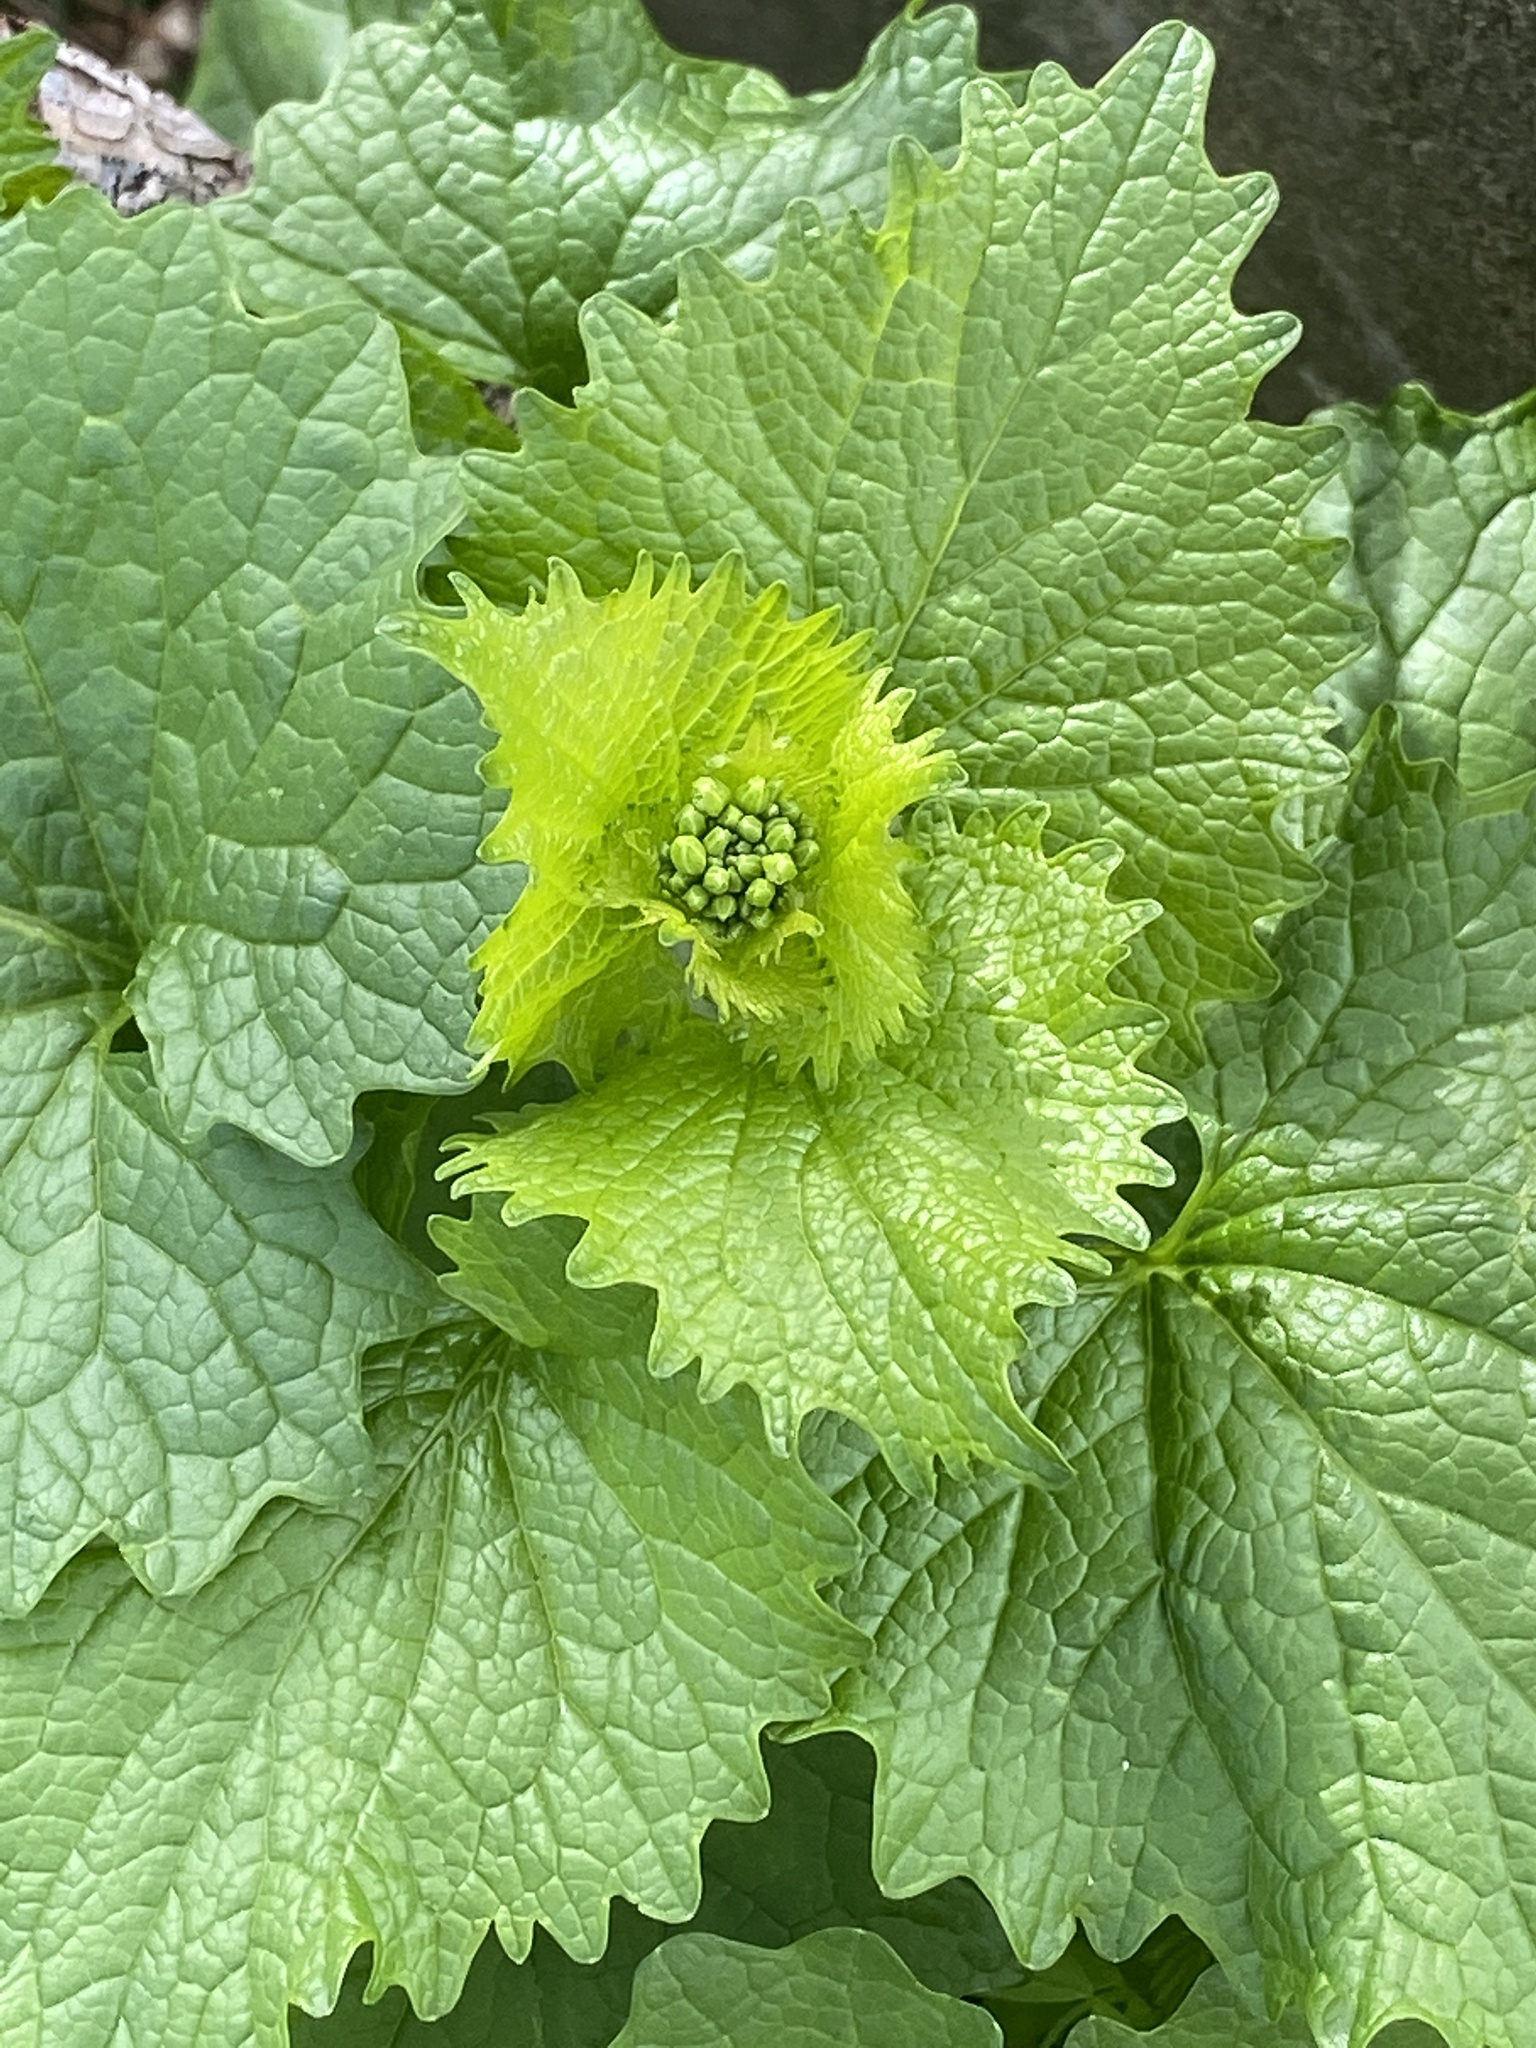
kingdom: Plantae
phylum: Tracheophyta
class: Magnoliopsida
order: Brassicales
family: Brassicaceae
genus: Alliaria
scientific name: Alliaria petiolata
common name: Garlic mustard
